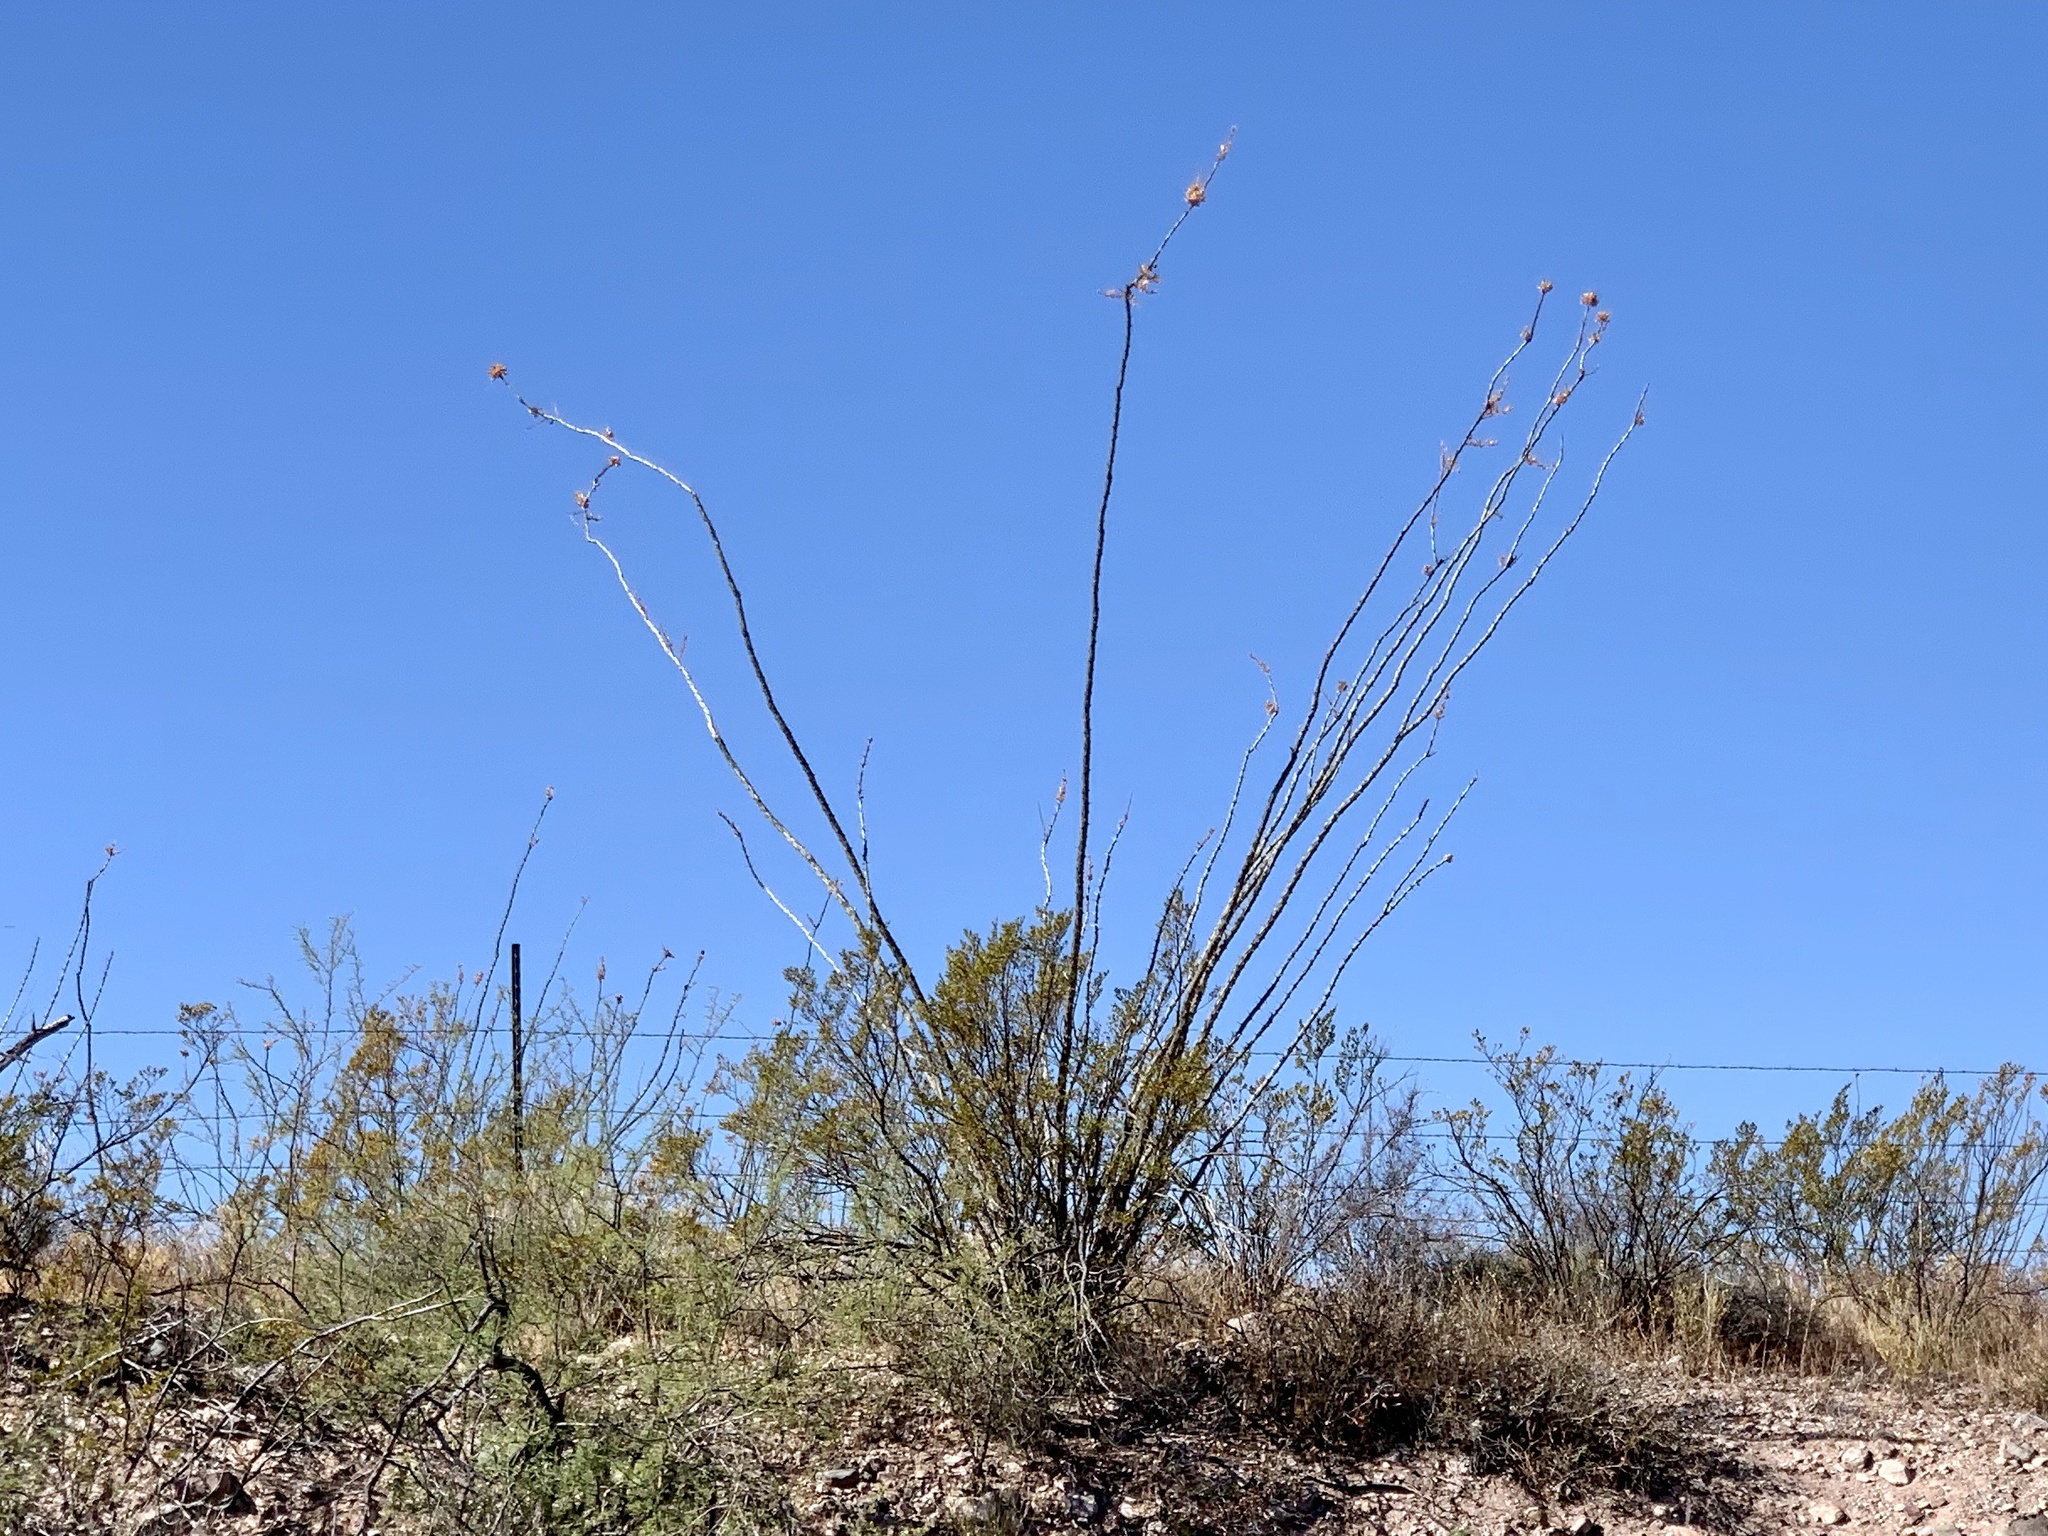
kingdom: Plantae
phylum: Tracheophyta
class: Magnoliopsida
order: Ericales
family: Fouquieriaceae
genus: Fouquieria
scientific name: Fouquieria splendens
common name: Vine-cactus
